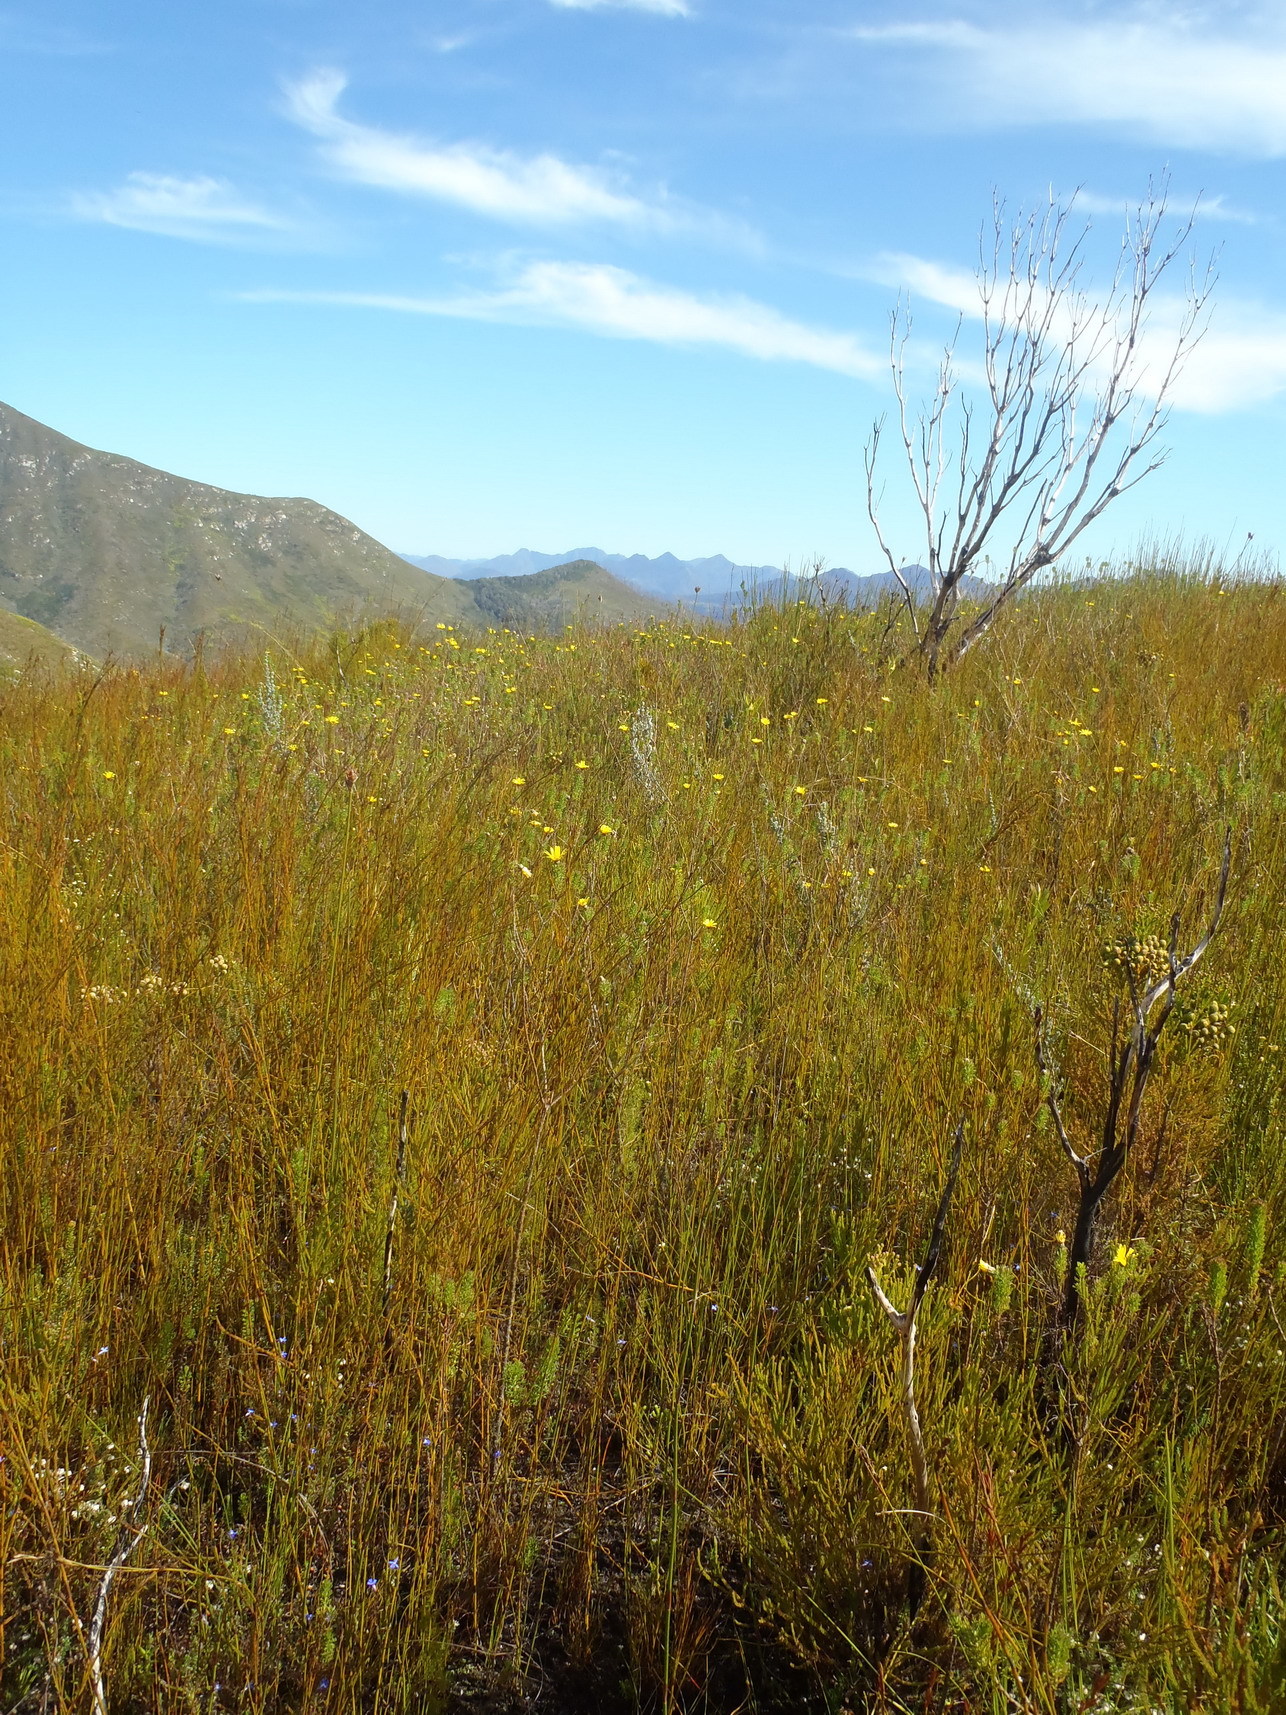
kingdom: Plantae
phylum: Tracheophyta
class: Magnoliopsida
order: Asterales
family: Asteraceae
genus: Ursinia
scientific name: Ursinia paleacea
